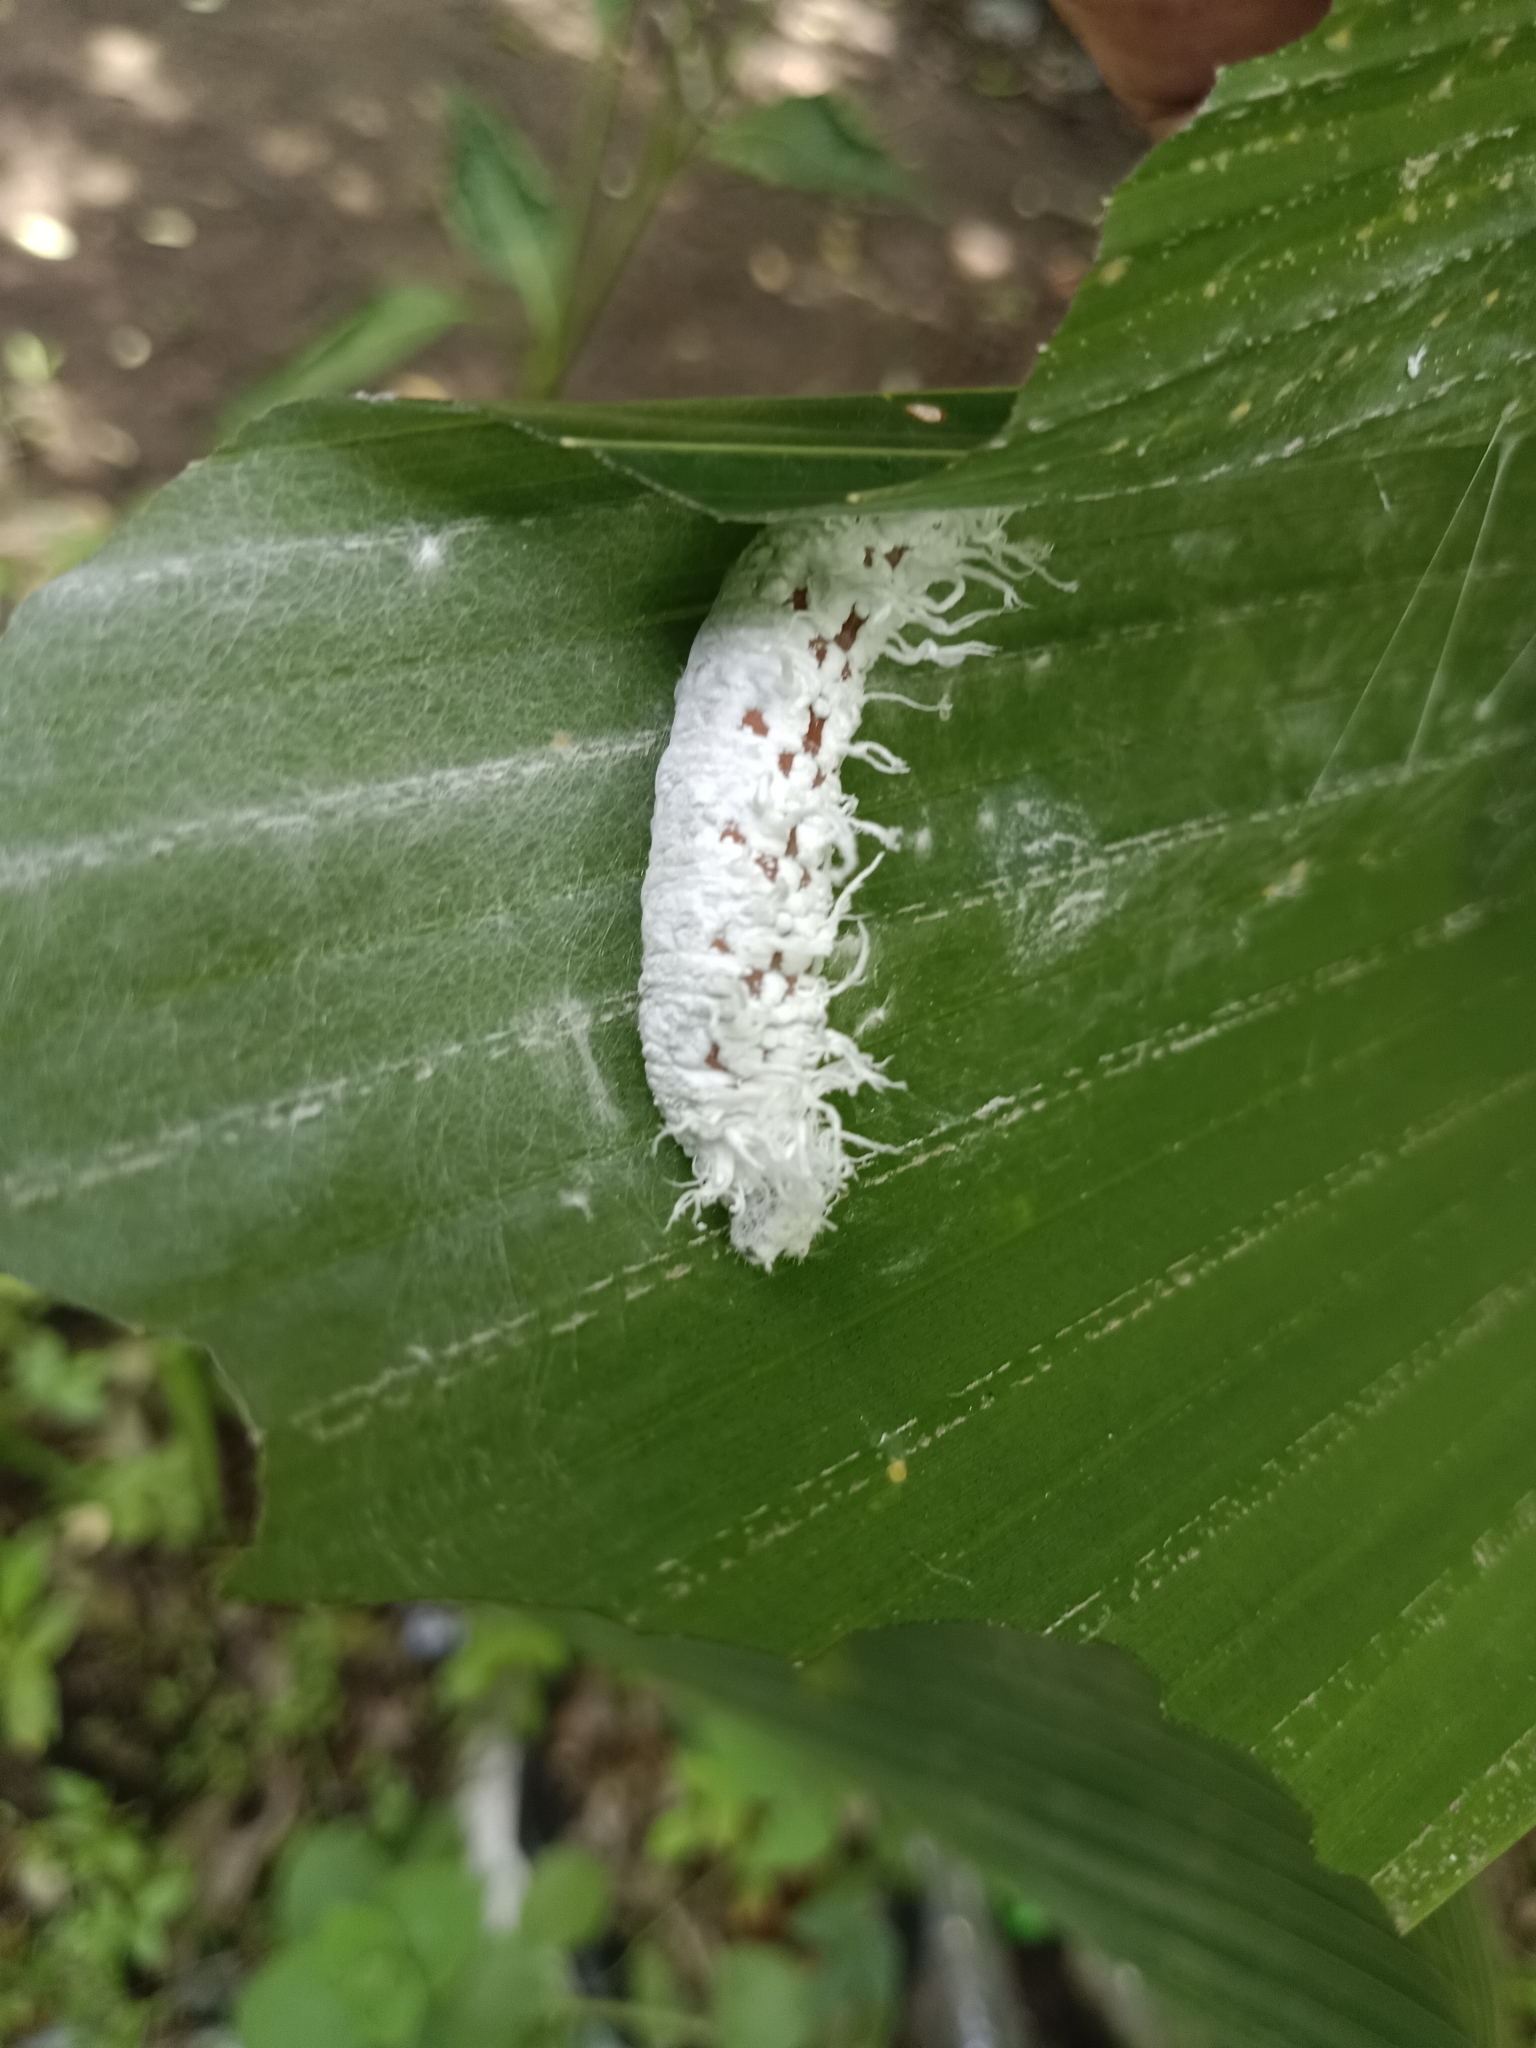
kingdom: Animalia
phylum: Arthropoda
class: Insecta
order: Lepidoptera
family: Hesperiidae
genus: Gangara
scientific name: Gangara thyrsis
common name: Giant redeye
